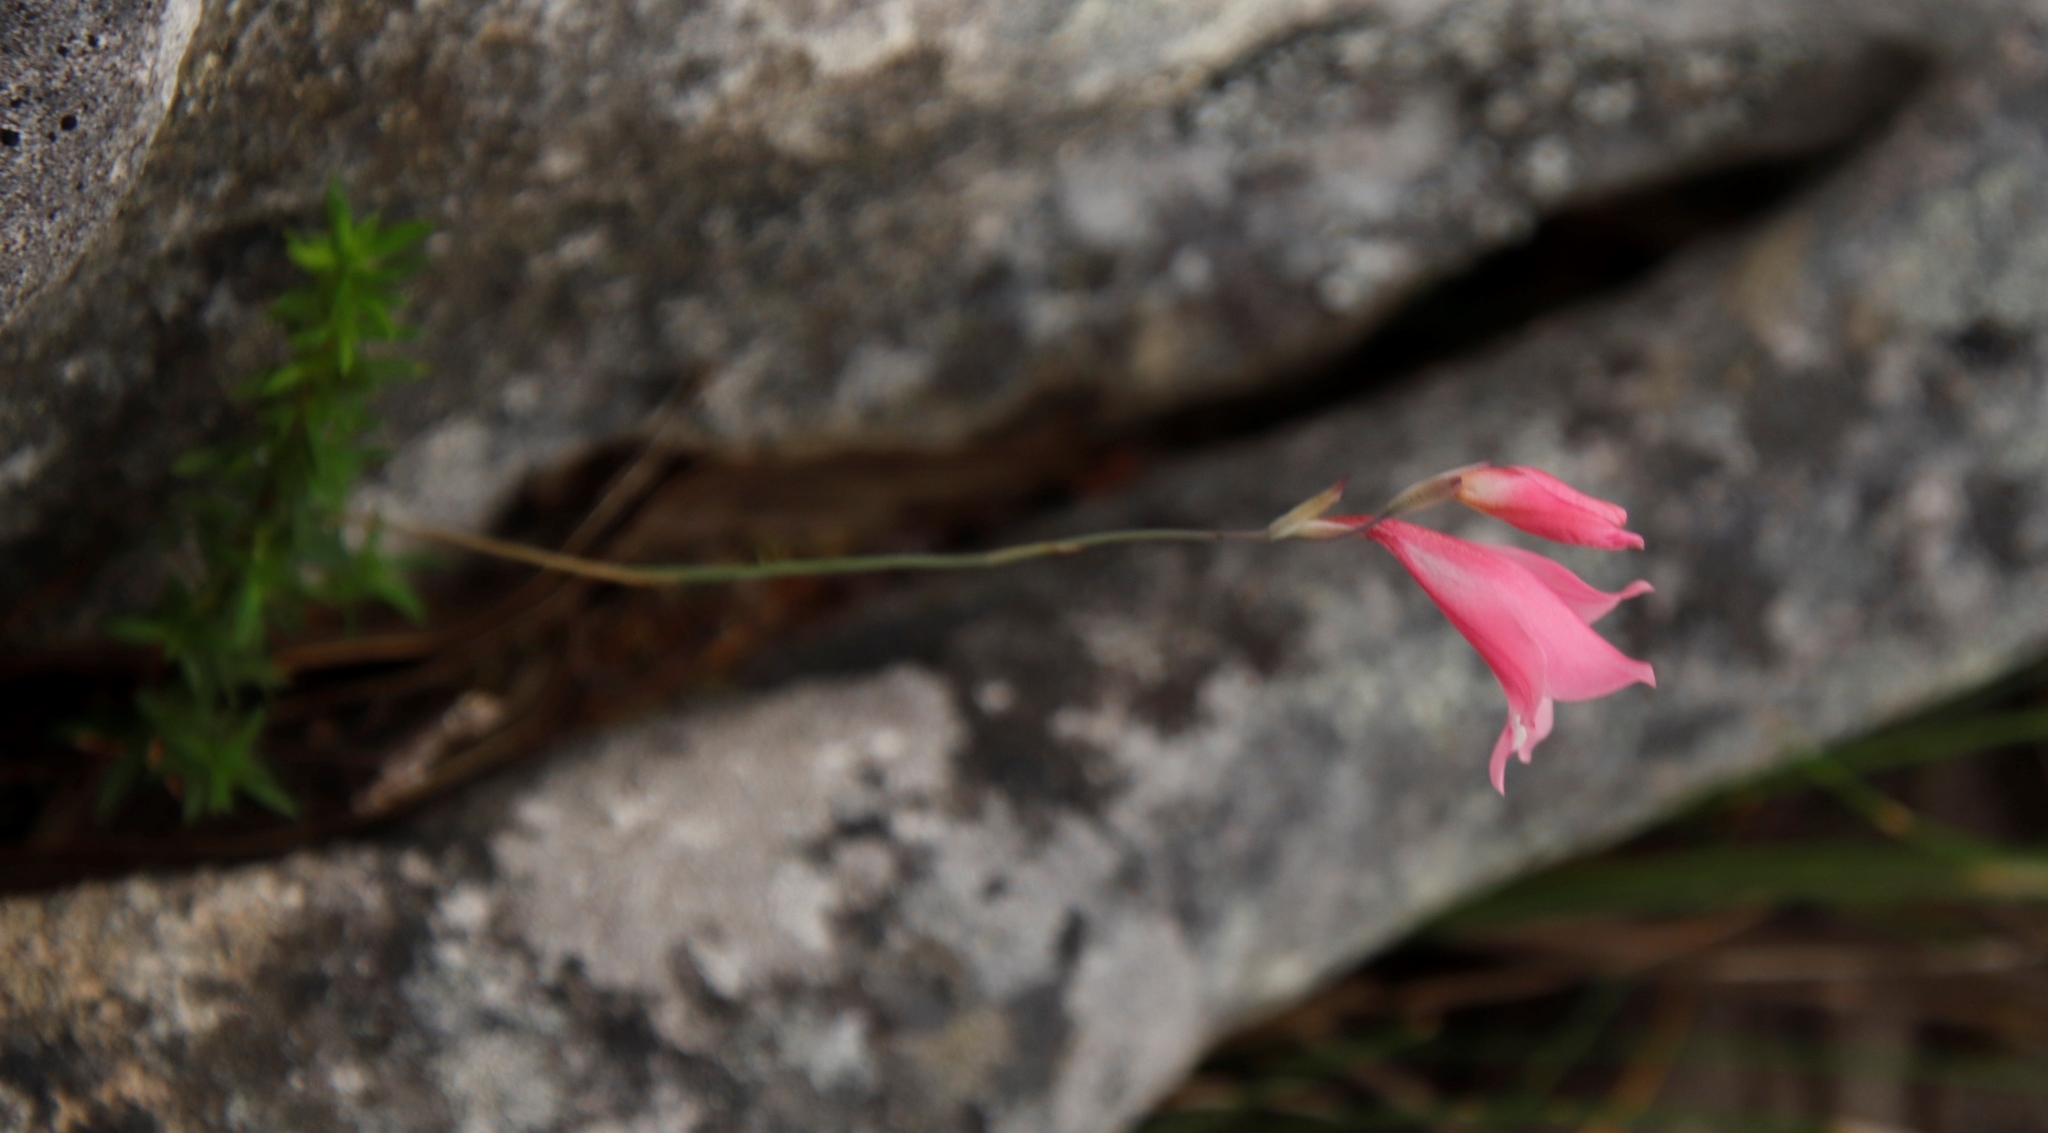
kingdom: Plantae
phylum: Tracheophyta
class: Liliopsida
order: Asparagales
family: Iridaceae
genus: Gladiolus
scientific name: Gladiolus brevifolius
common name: March pypie
